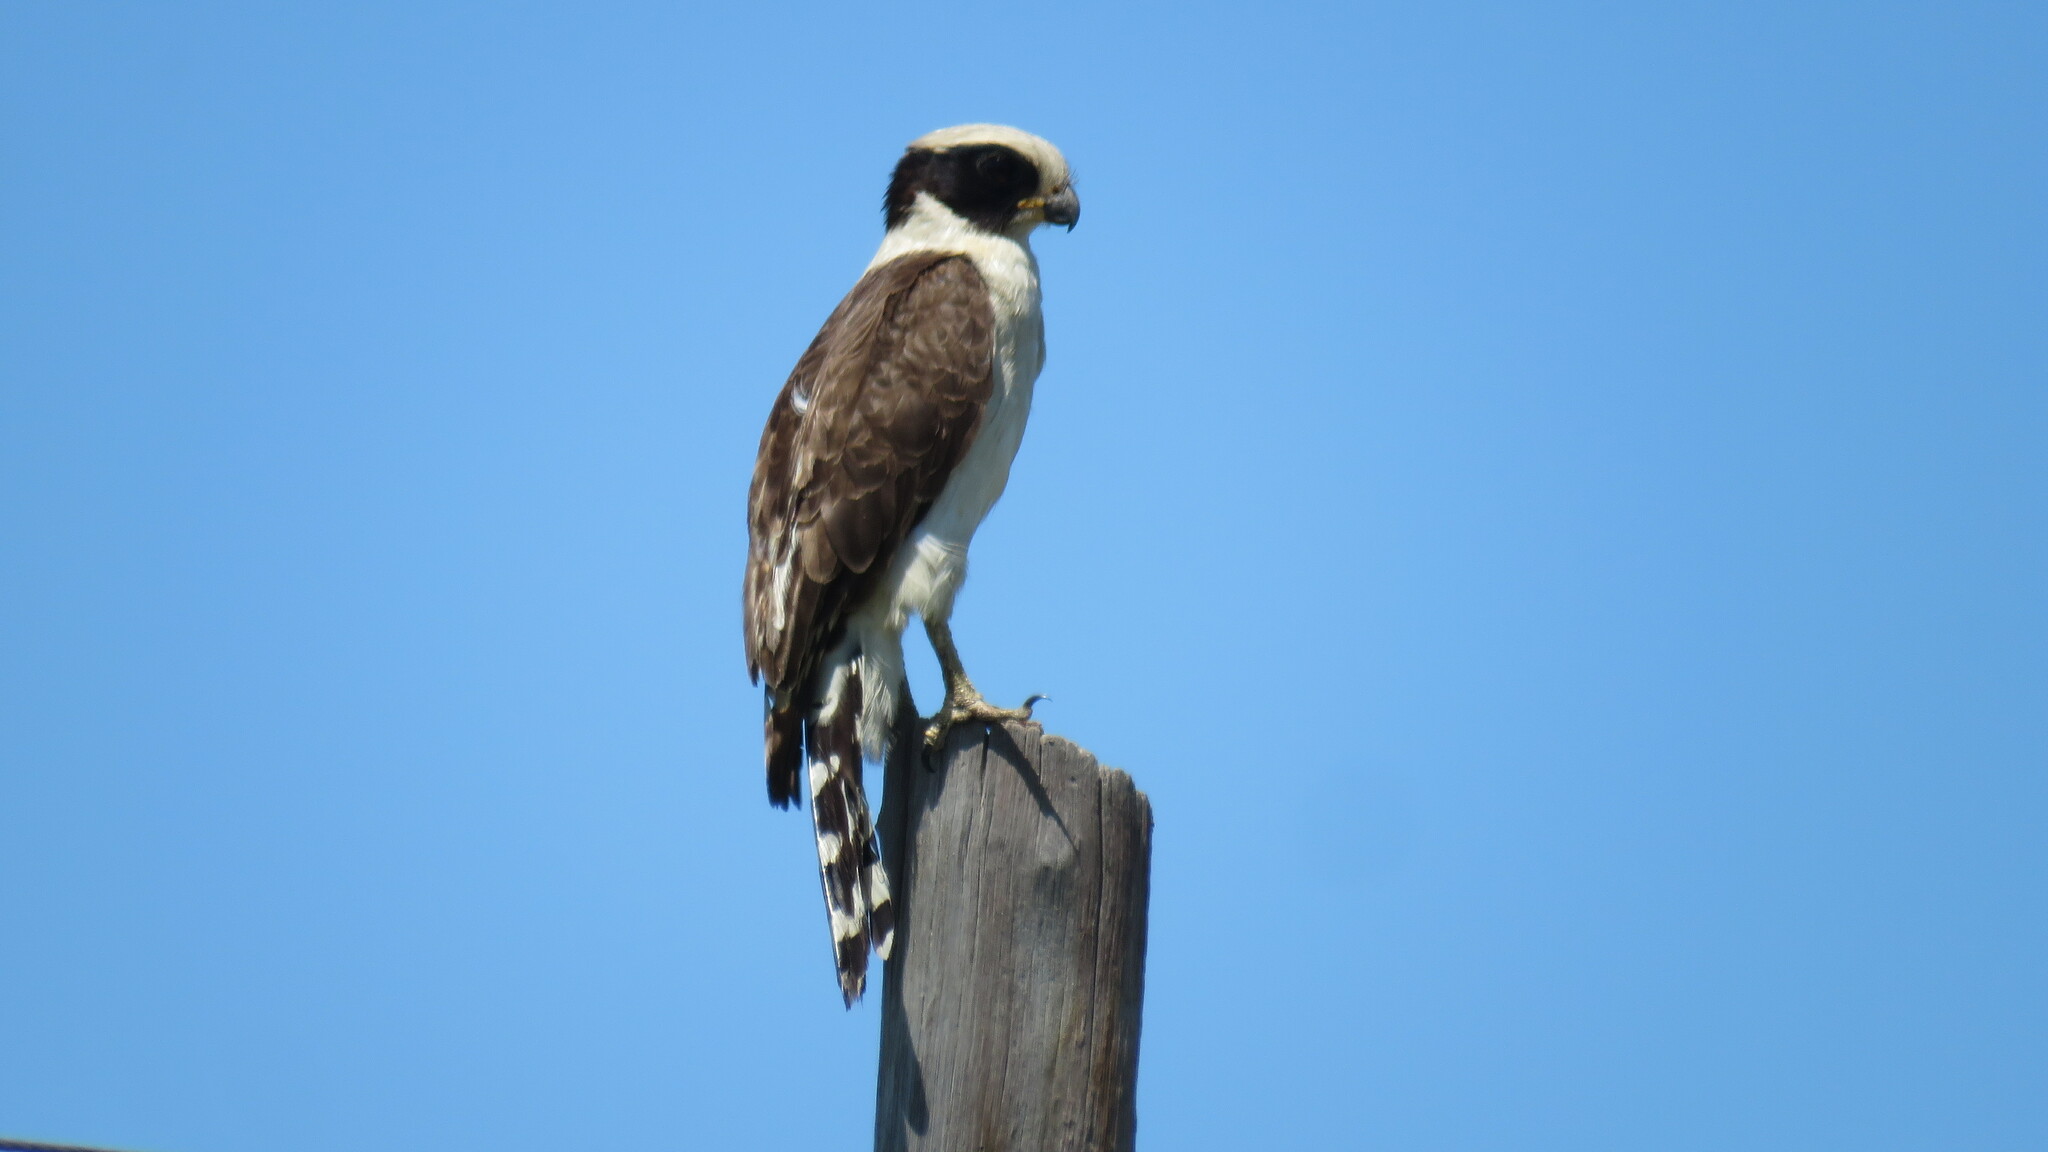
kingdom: Animalia
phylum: Chordata
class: Aves
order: Falconiformes
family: Falconidae
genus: Herpetotheres
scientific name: Herpetotheres cachinnans
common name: Laughing falcon
